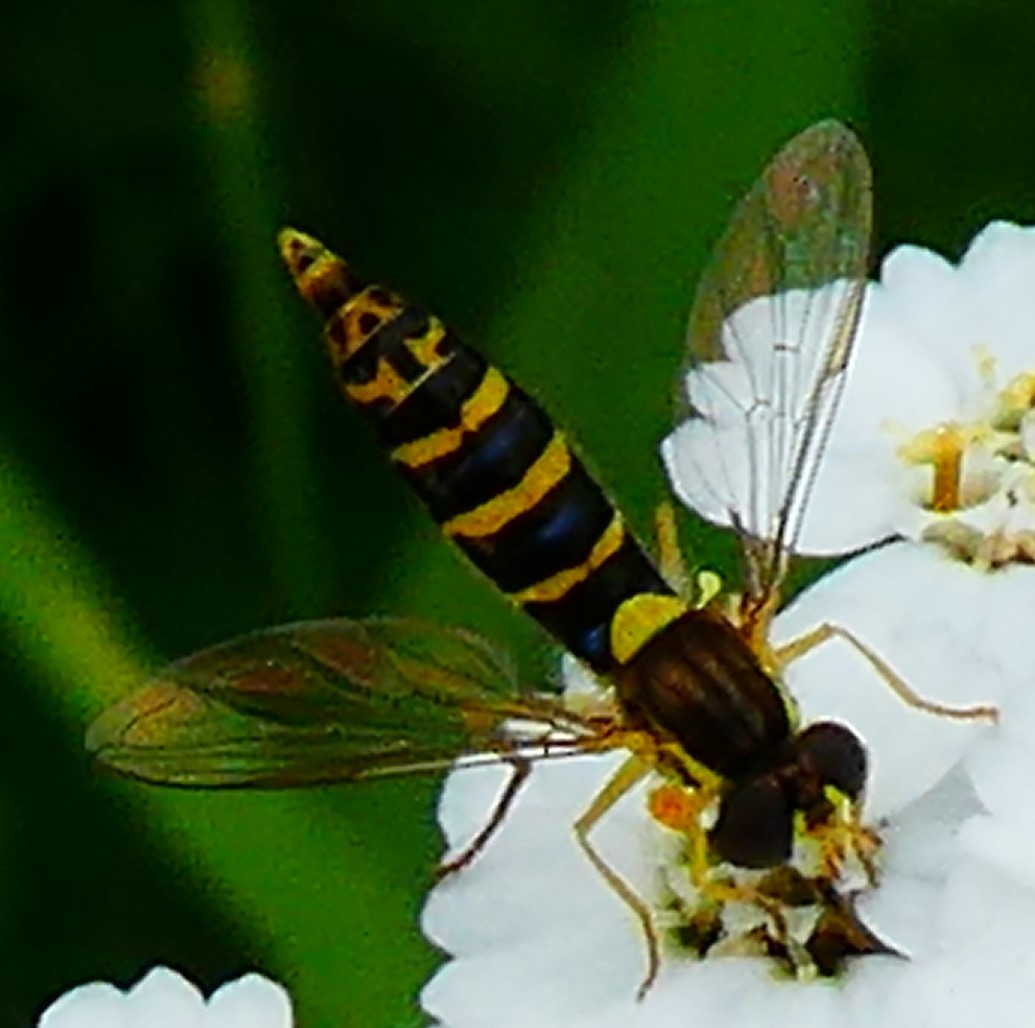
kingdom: Animalia
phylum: Arthropoda
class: Insecta
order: Diptera
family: Syrphidae
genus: Sphaerophoria
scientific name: Sphaerophoria
